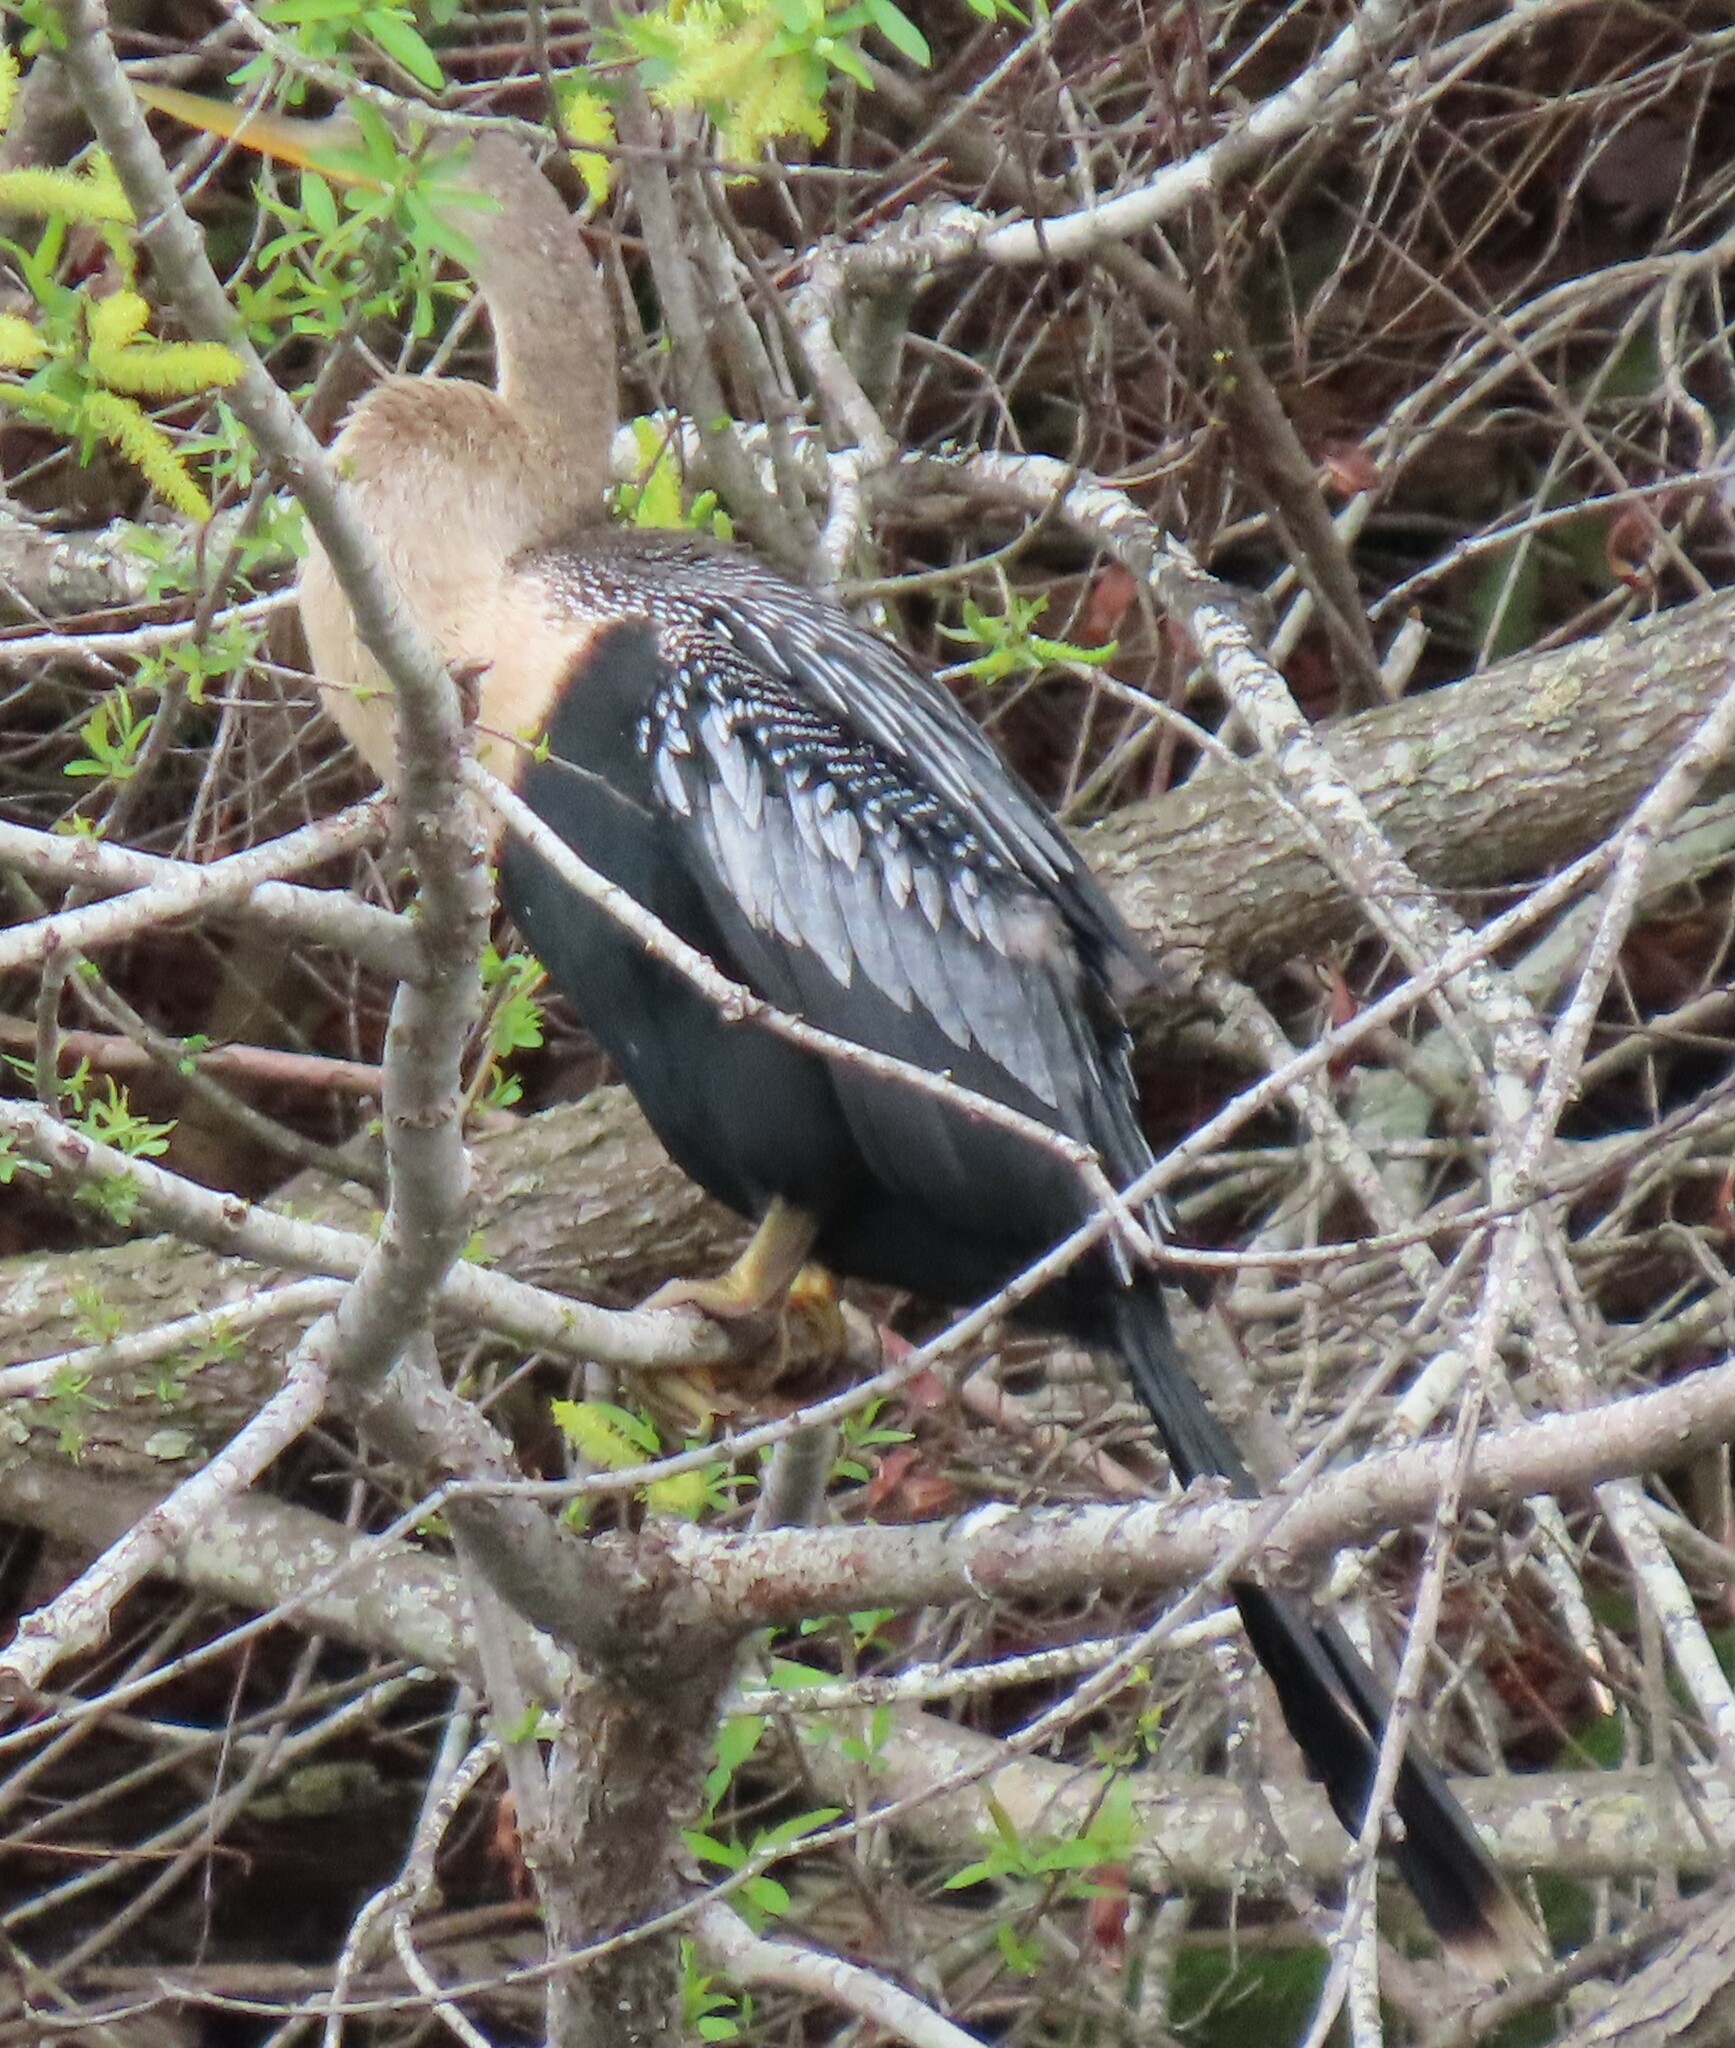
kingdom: Animalia
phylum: Chordata
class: Aves
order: Suliformes
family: Anhingidae
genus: Anhinga
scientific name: Anhinga anhinga
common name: Anhinga
